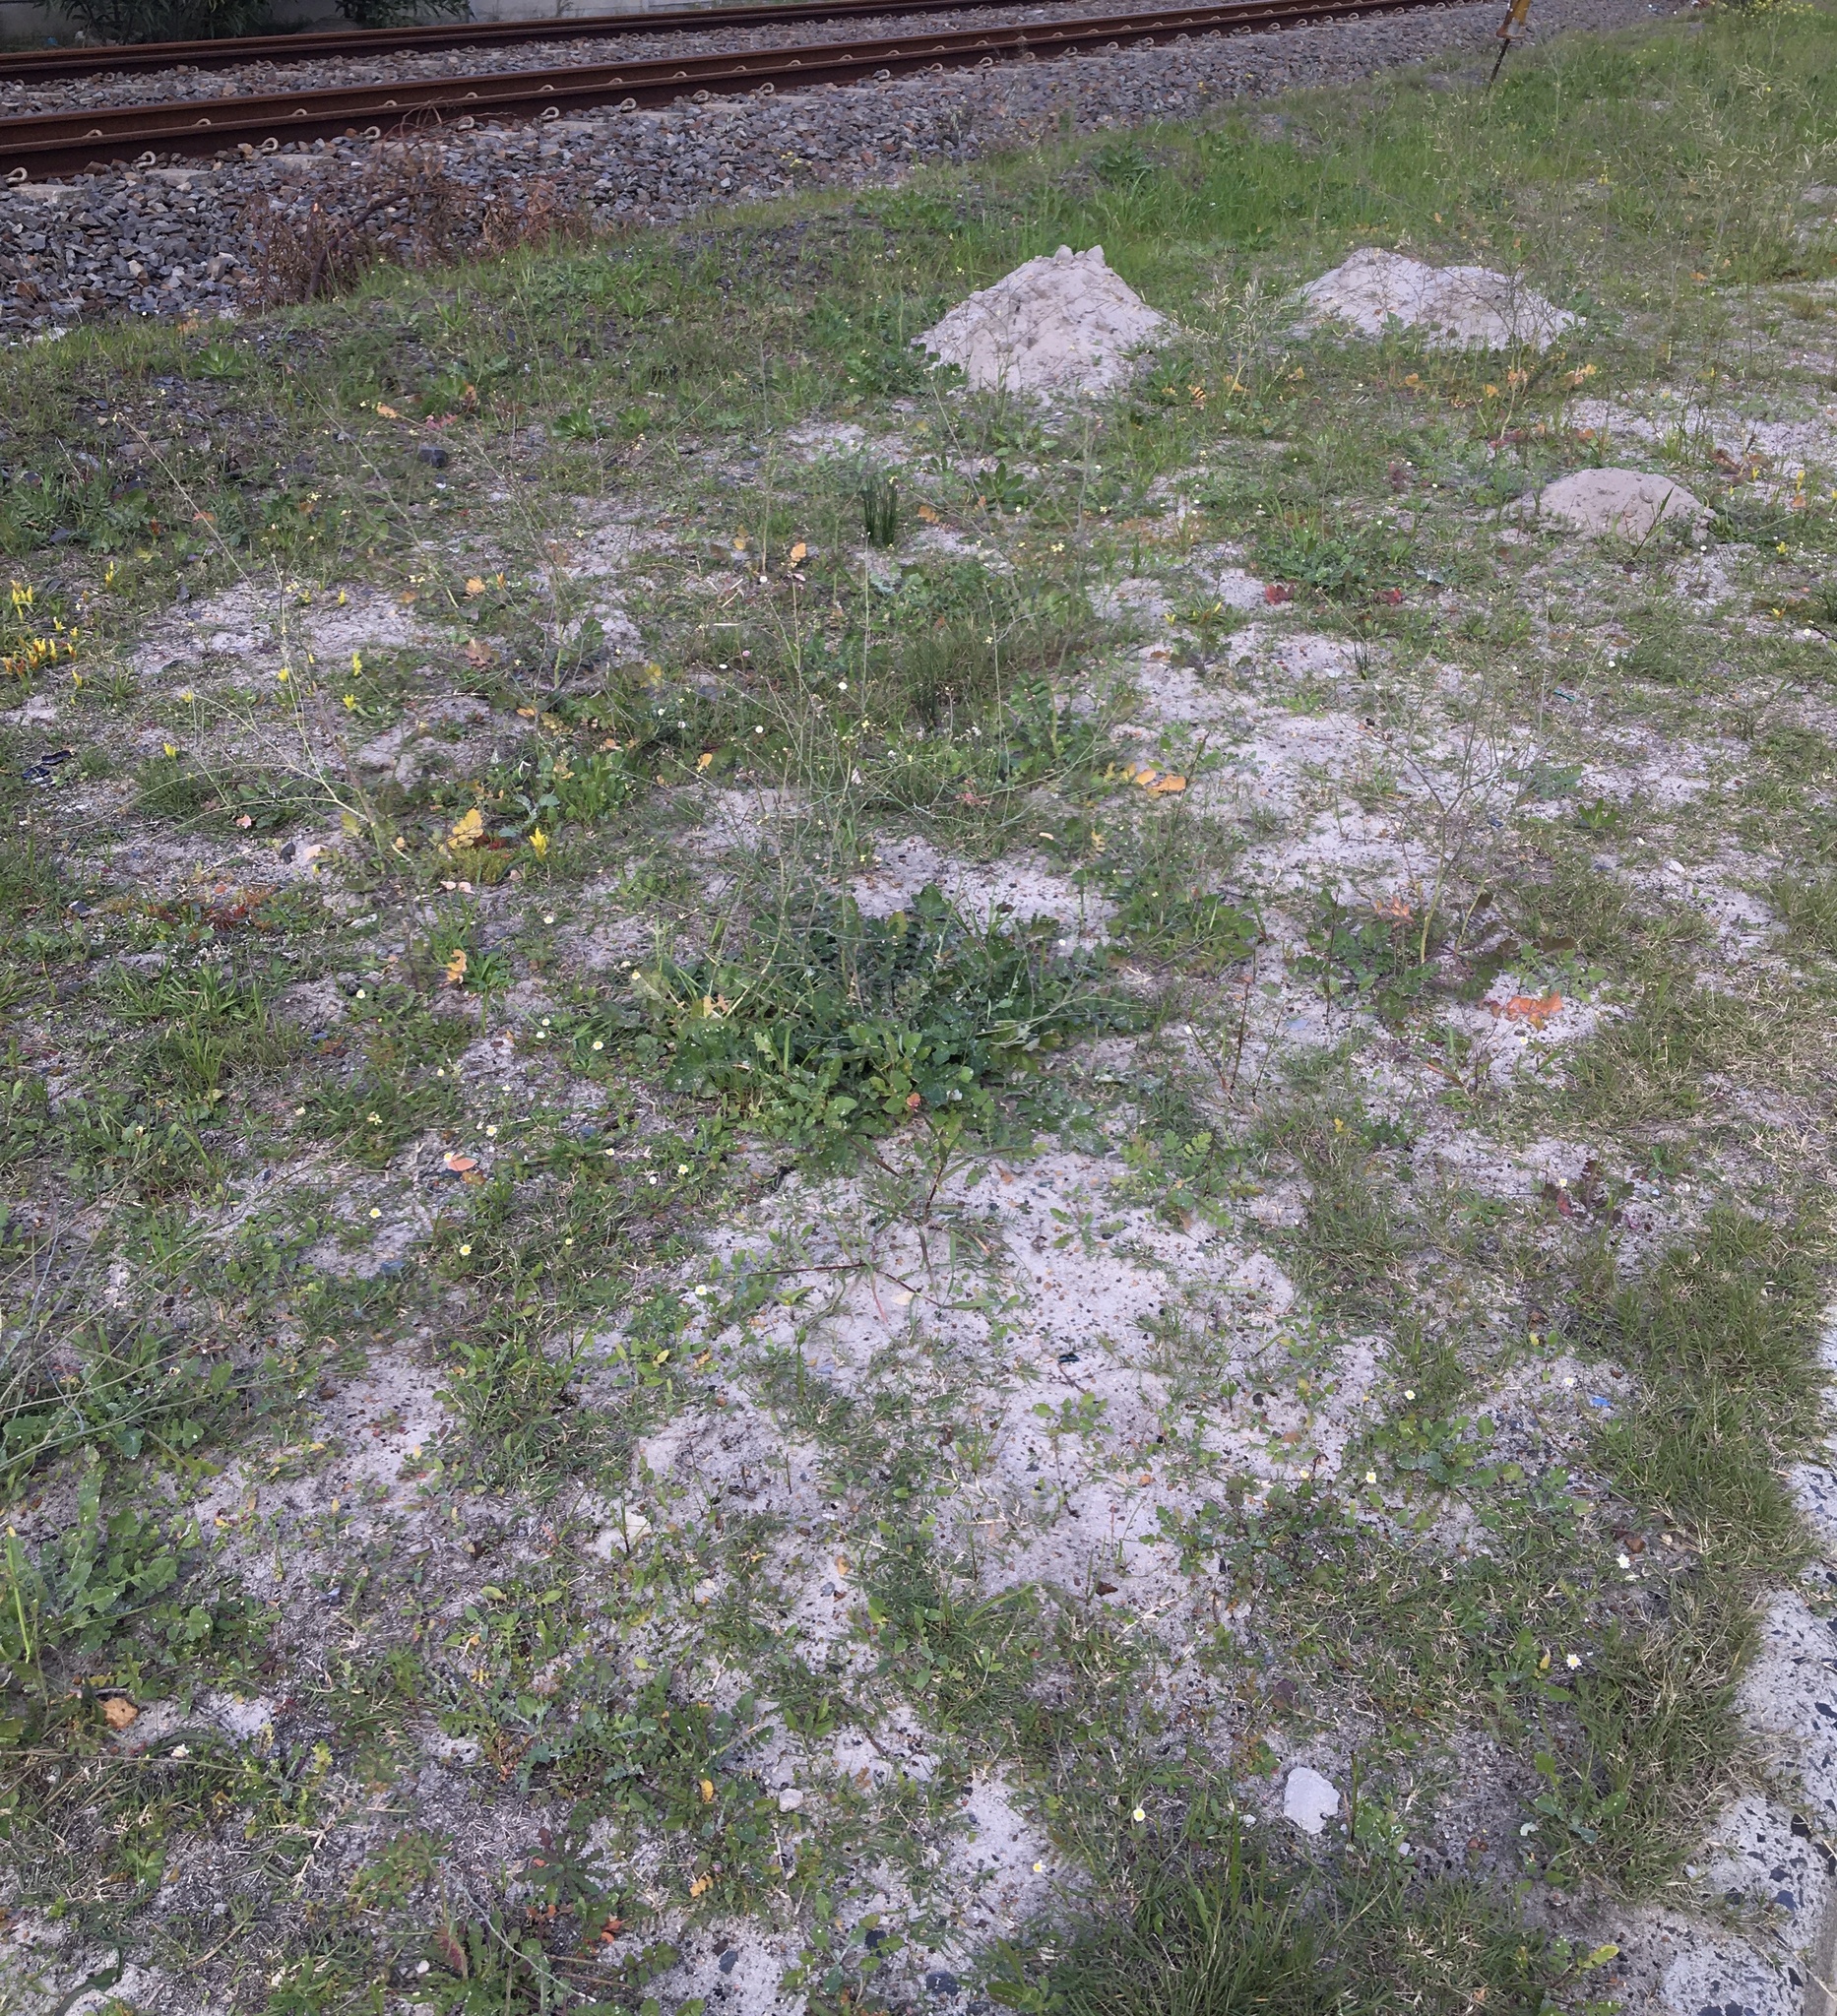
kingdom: Plantae
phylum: Tracheophyta
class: Liliopsida
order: Asparagales
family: Asparagaceae
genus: Lachenalia
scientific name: Lachenalia reflexa
